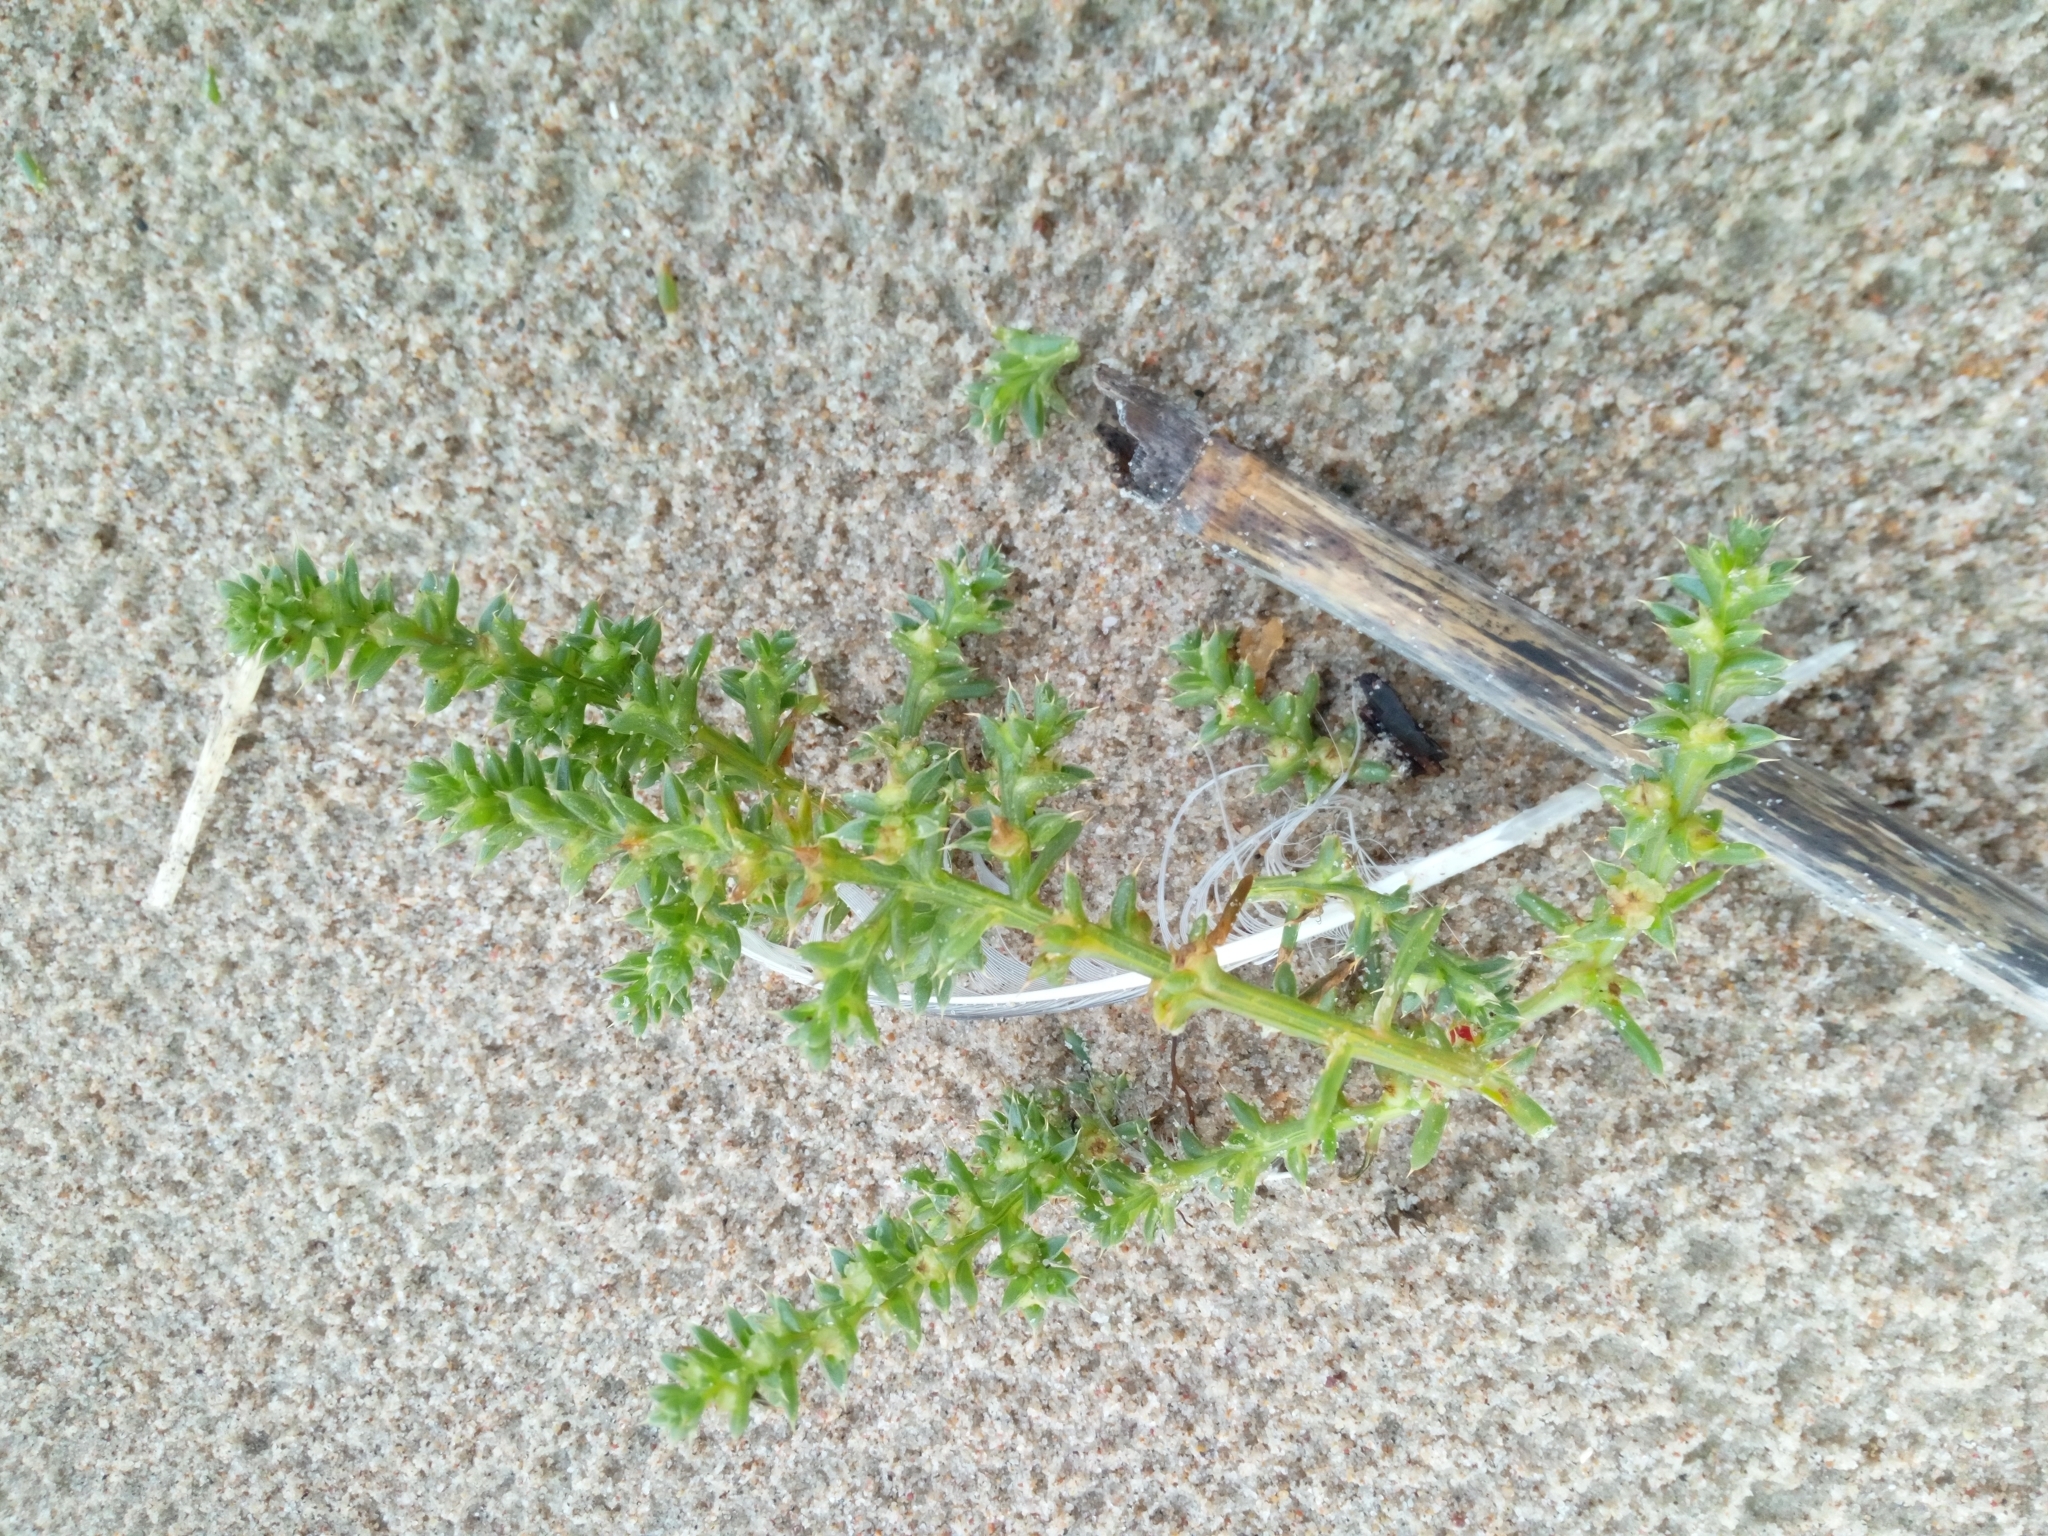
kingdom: Plantae
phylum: Tracheophyta
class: Magnoliopsida
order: Caryophyllales
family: Amaranthaceae
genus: Salsola
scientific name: Salsola kali
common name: Saltwort
